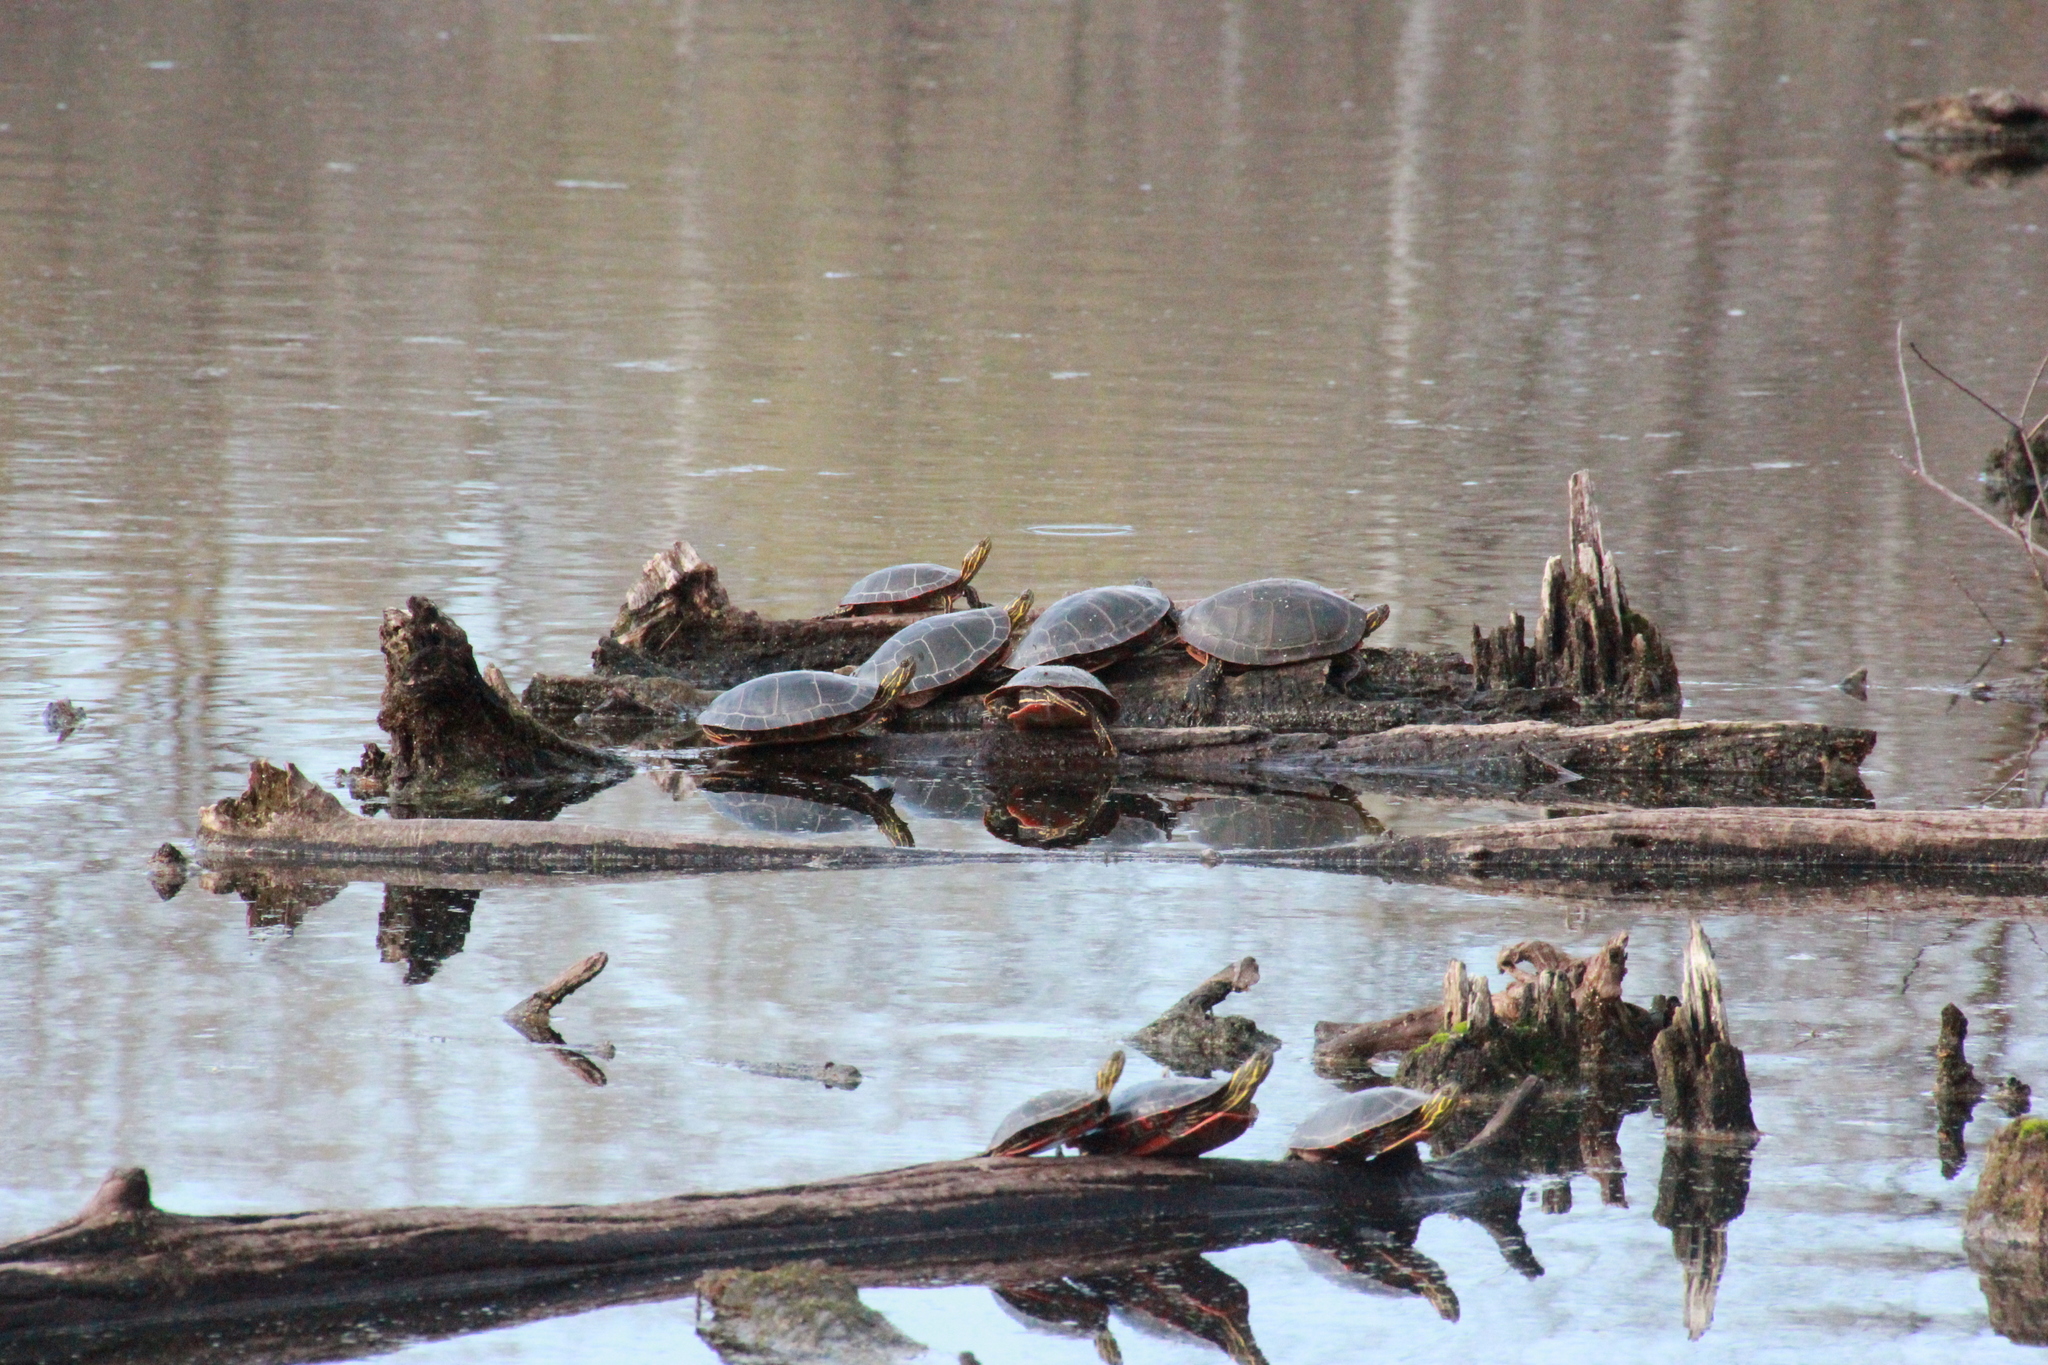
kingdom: Animalia
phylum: Chordata
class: Testudines
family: Emydidae
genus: Chrysemys
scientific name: Chrysemys picta
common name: Painted turtle
